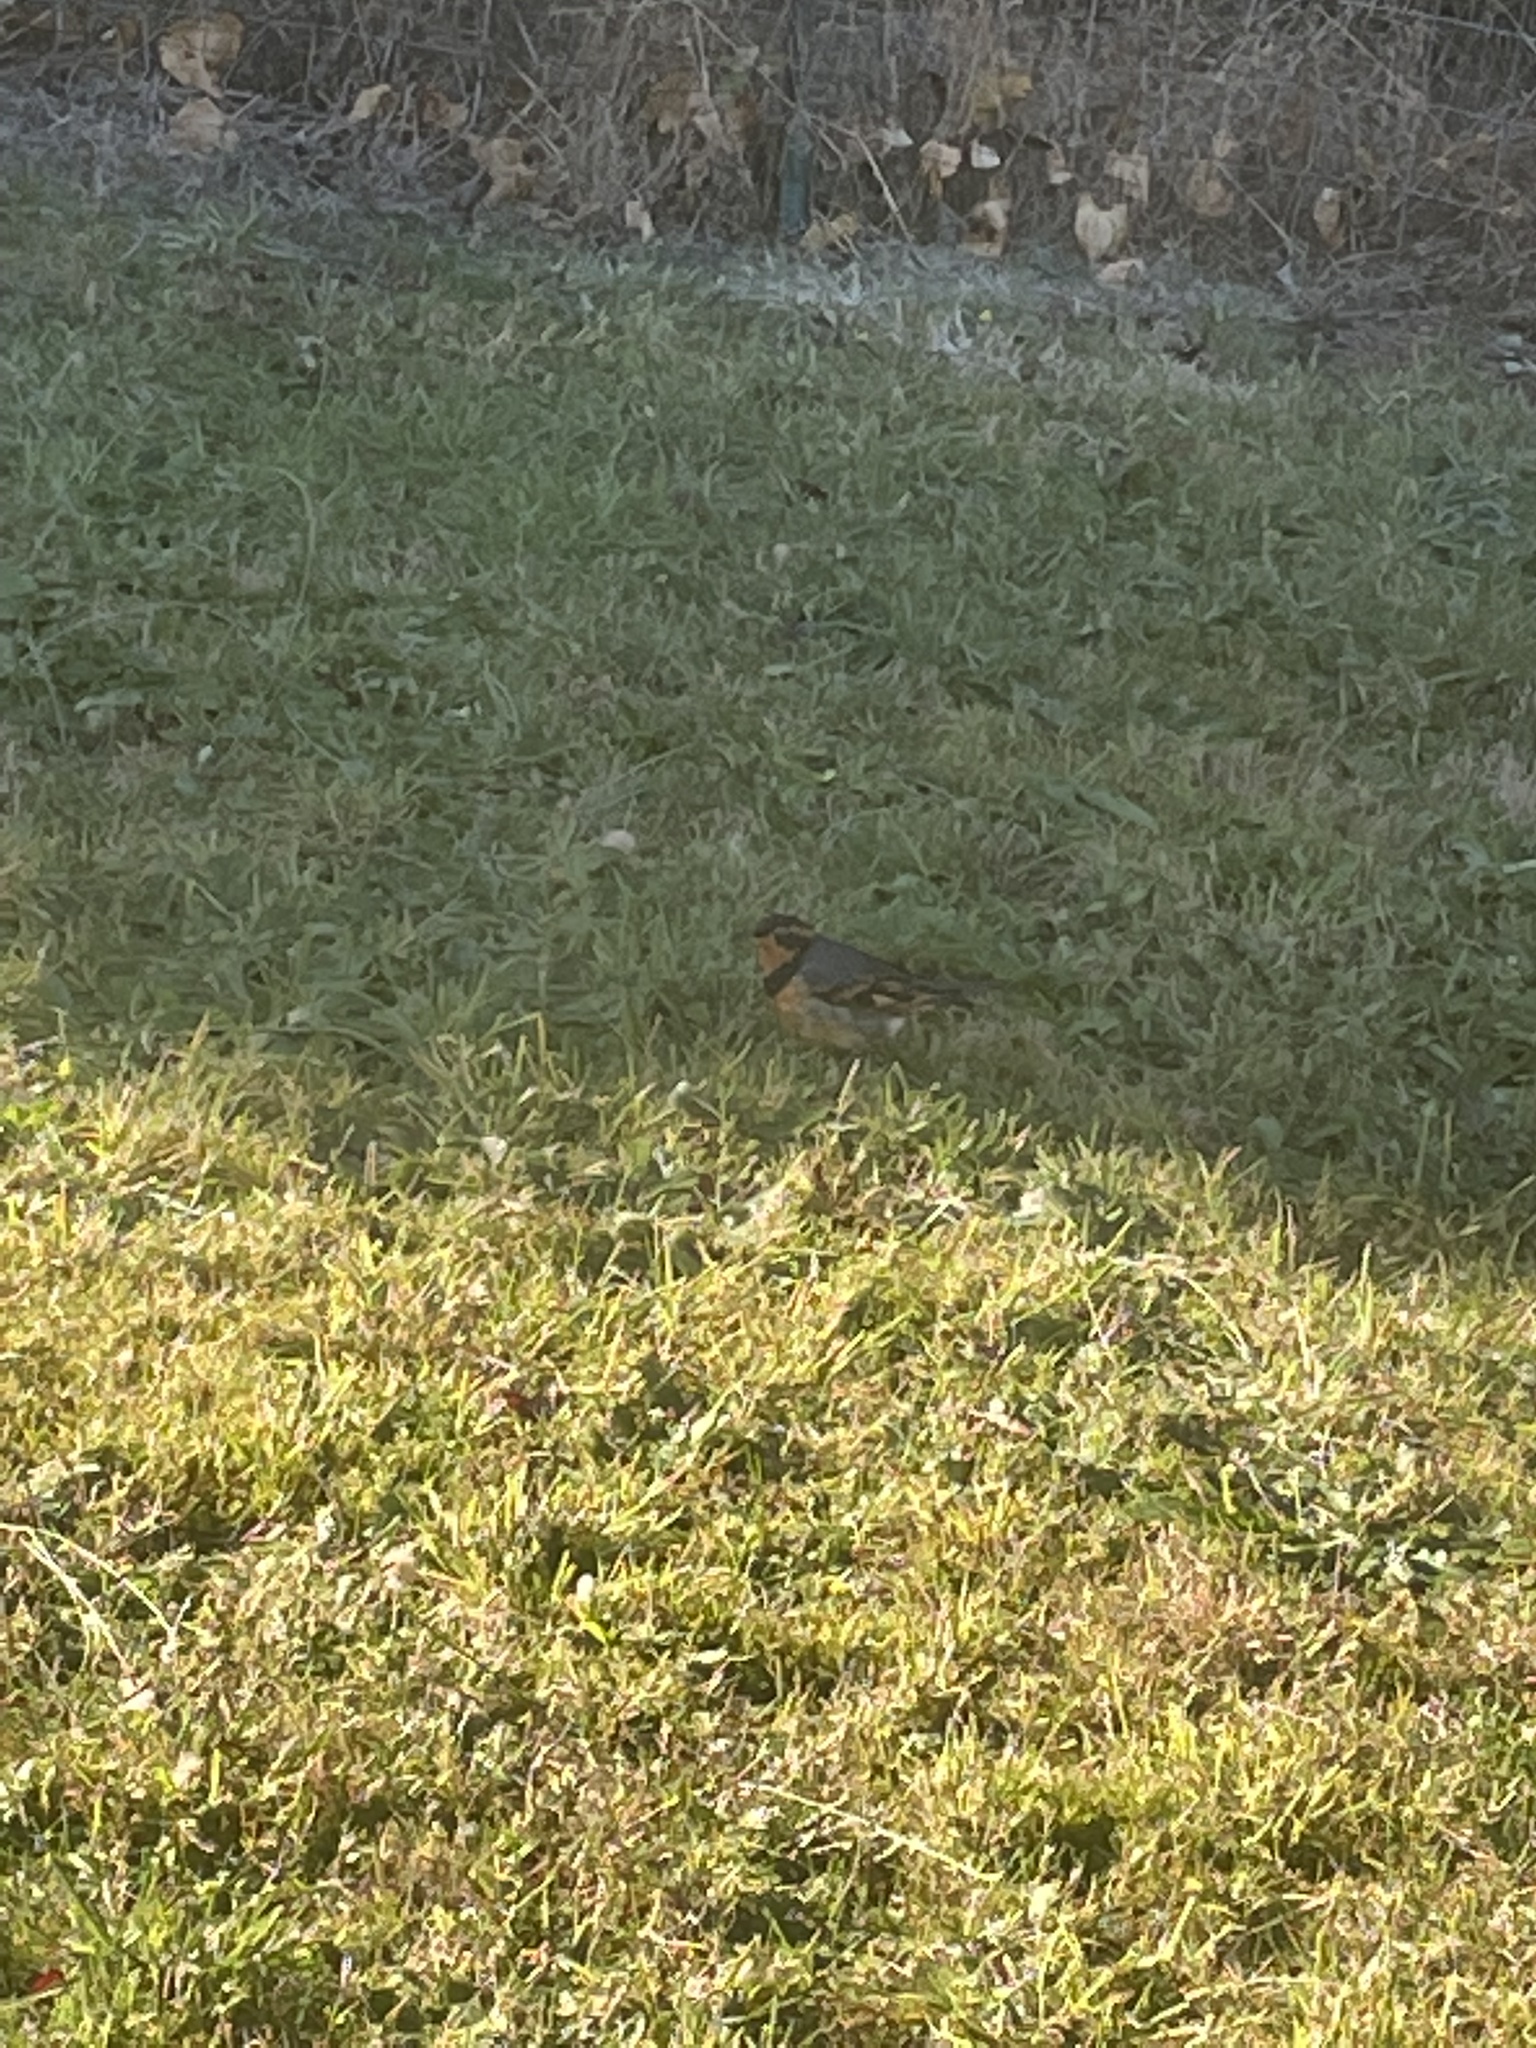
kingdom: Animalia
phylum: Chordata
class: Aves
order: Passeriformes
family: Turdidae
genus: Ixoreus
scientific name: Ixoreus naevius
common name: Varied thrush
